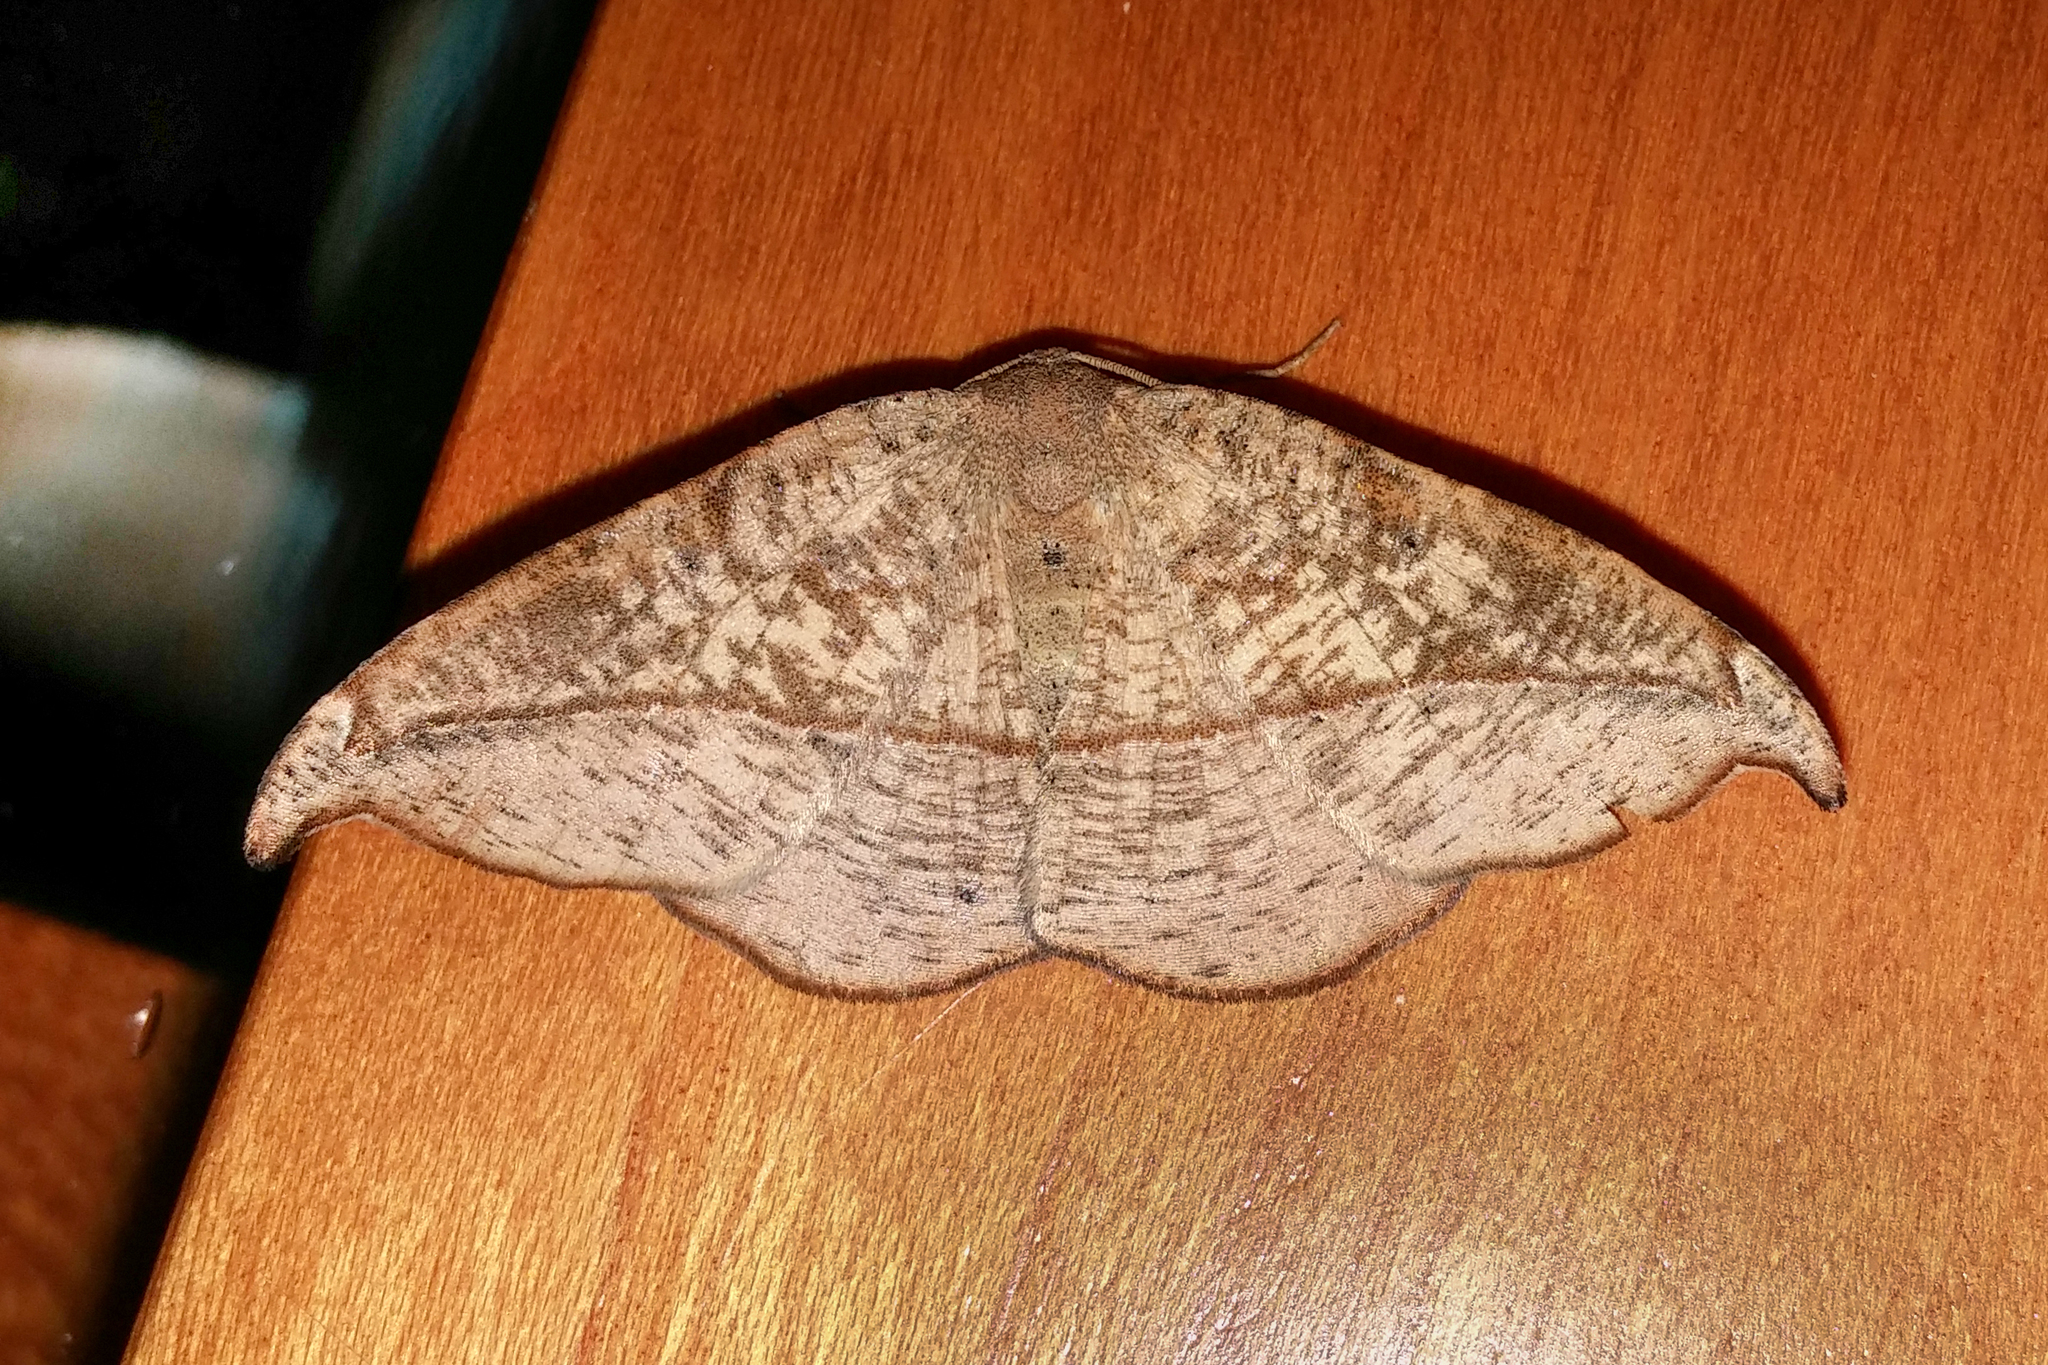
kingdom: Animalia
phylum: Arthropoda
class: Insecta
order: Lepidoptera
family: Geometridae
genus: Patalene
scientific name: Patalene olyzonaria
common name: Juniper geometer moth
